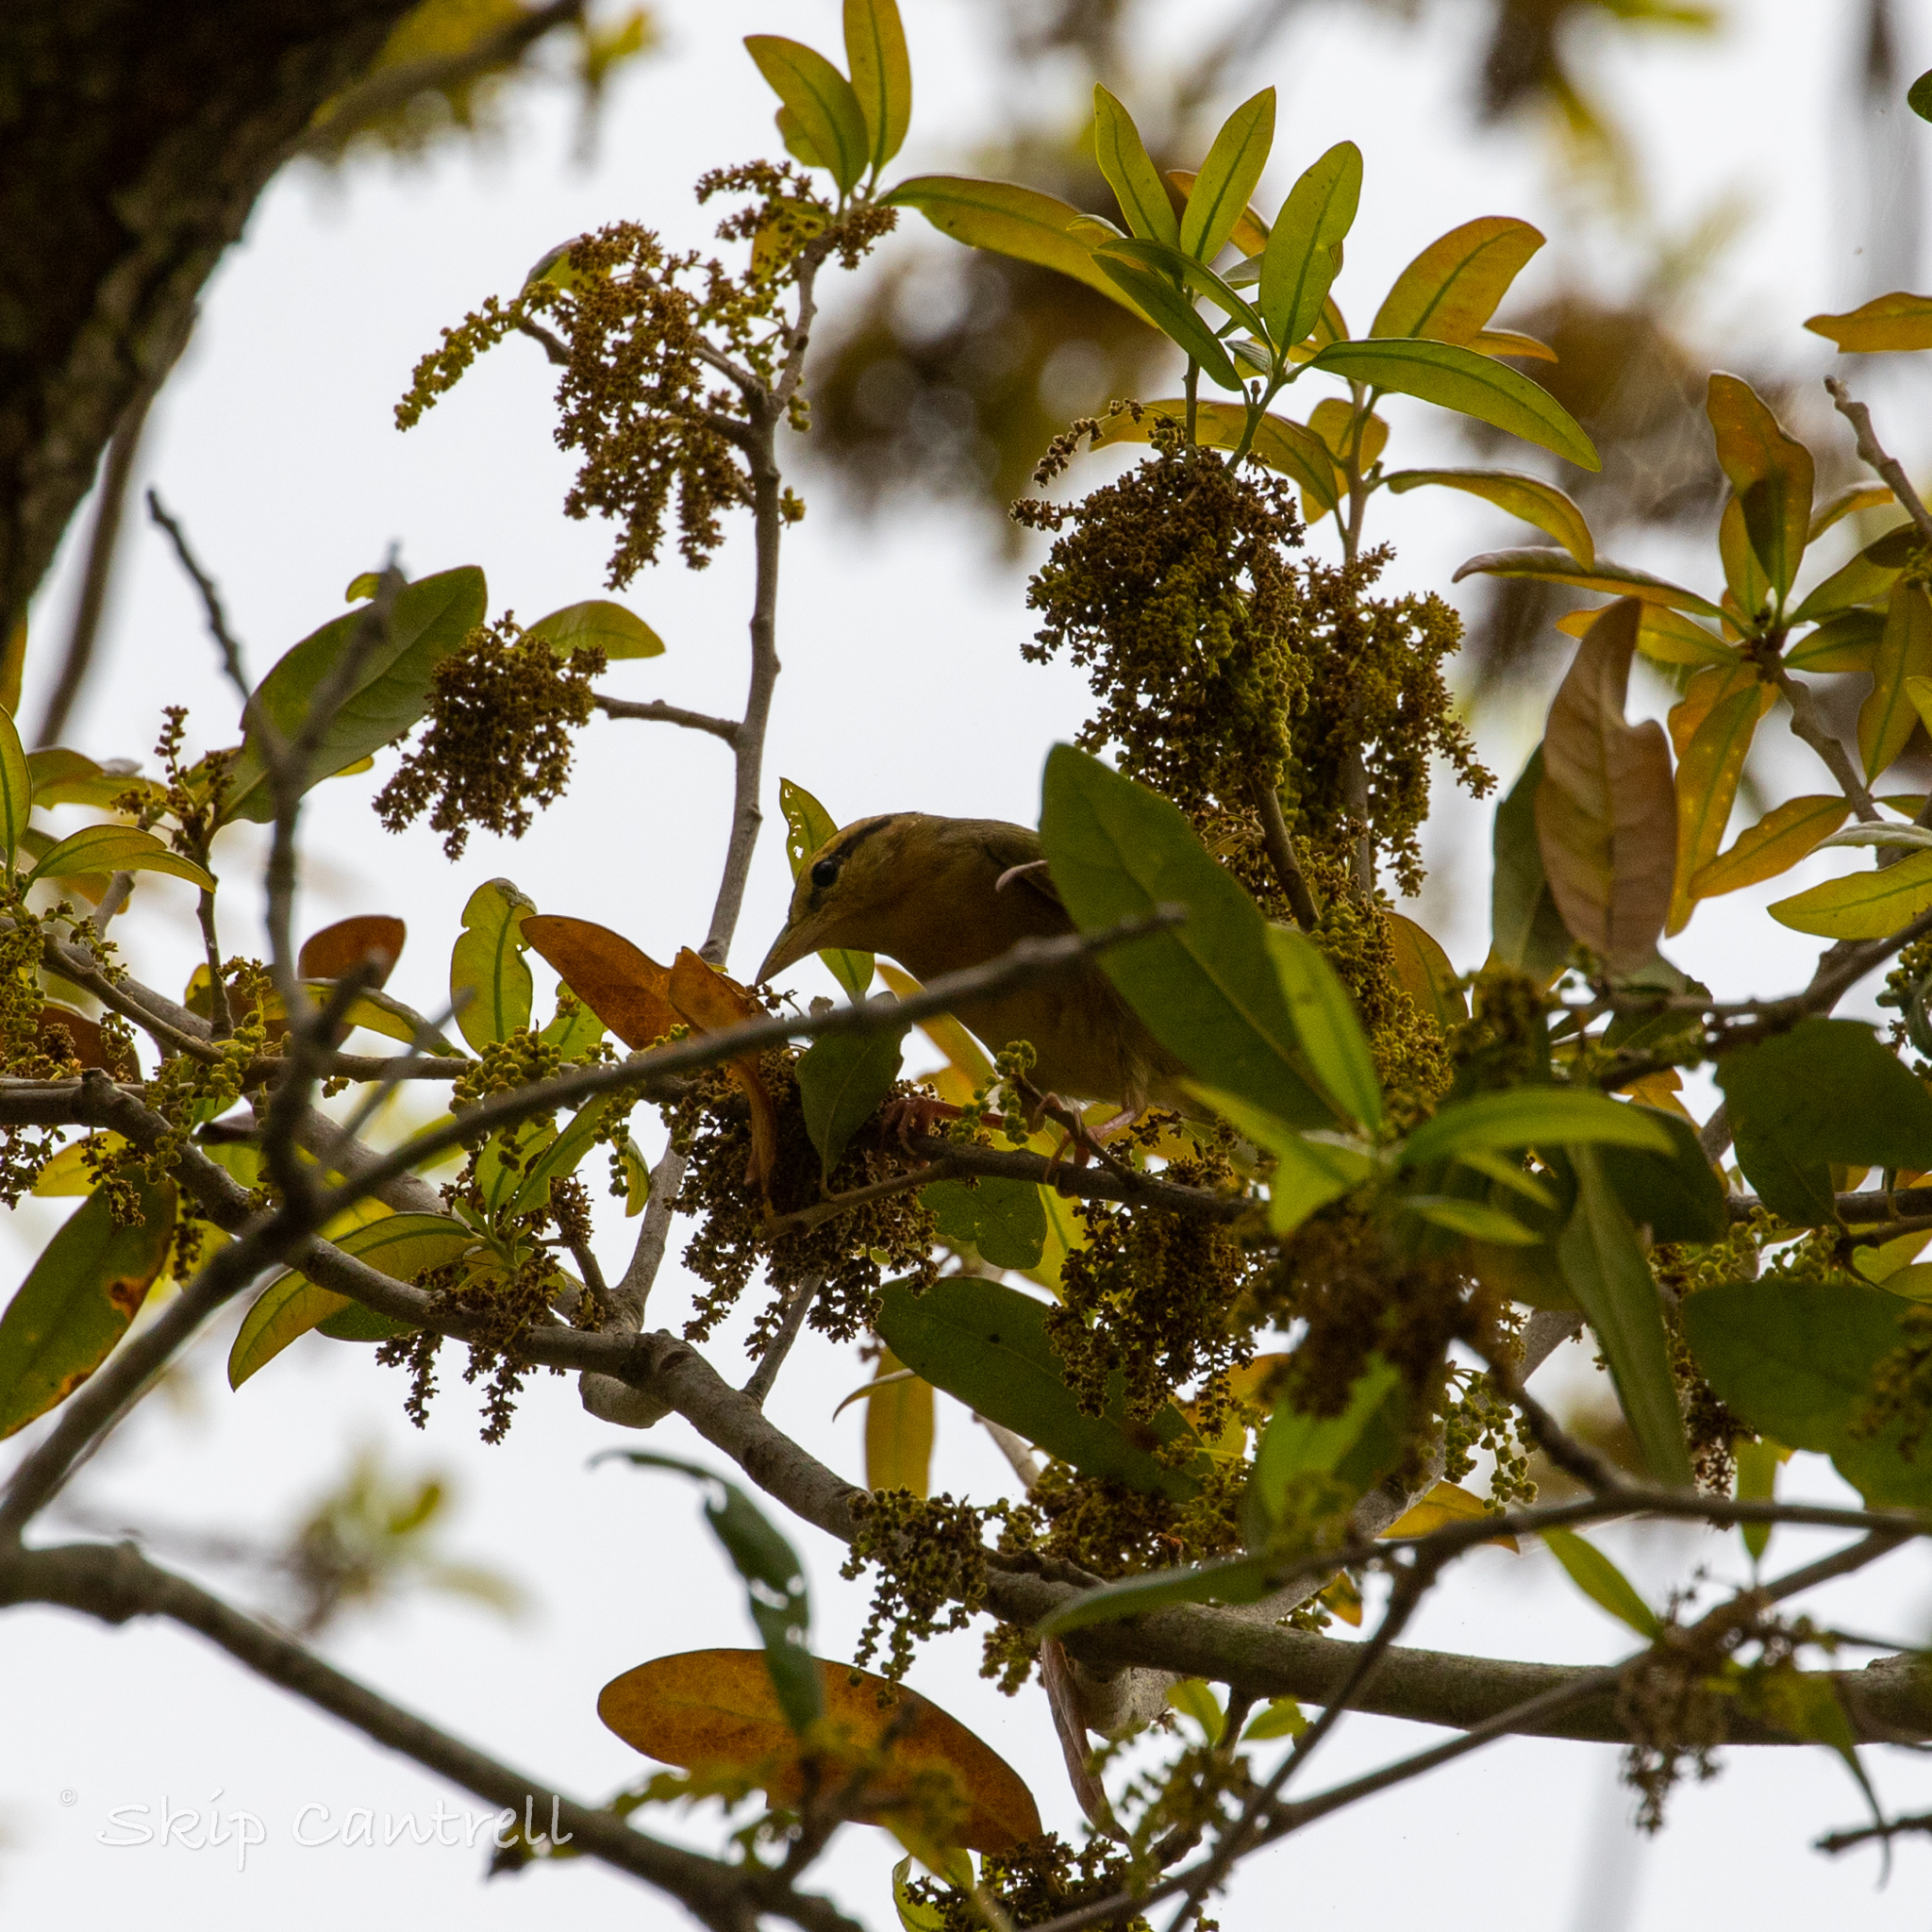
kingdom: Animalia
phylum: Chordata
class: Aves
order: Passeriformes
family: Parulidae
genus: Helmitheros
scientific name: Helmitheros vermivorum
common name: Worm-eating warbler
